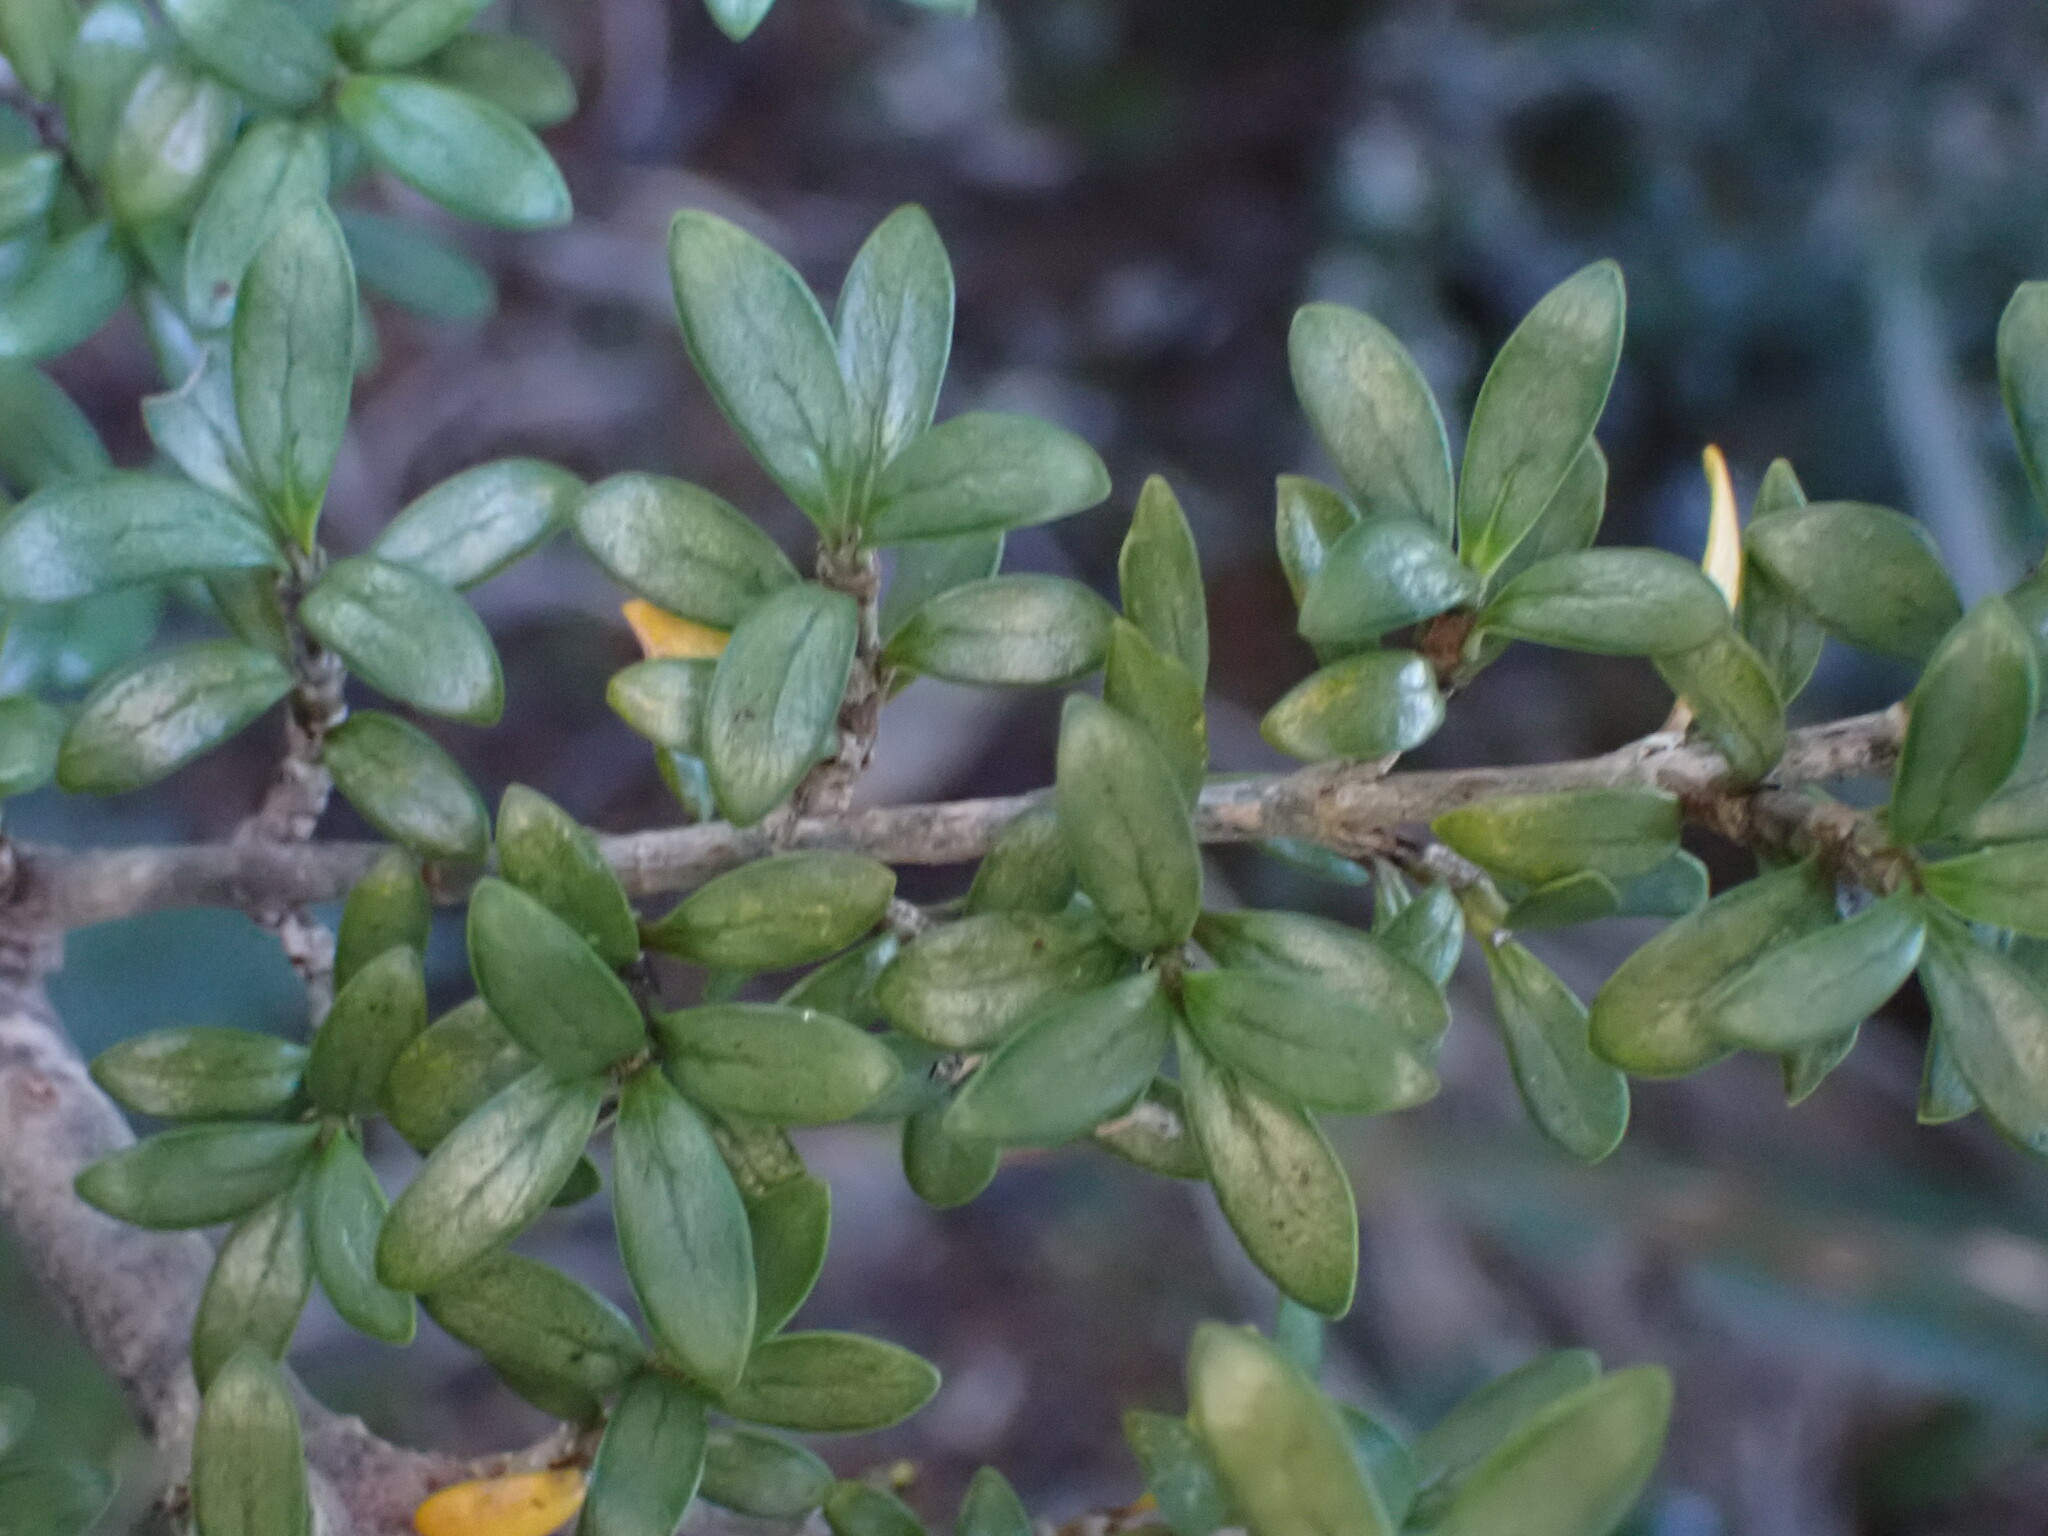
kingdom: Plantae
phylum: Tracheophyta
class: Magnoliopsida
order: Gentianales
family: Rubiaceae
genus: Coprosma
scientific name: Coprosma pseudocuneata
